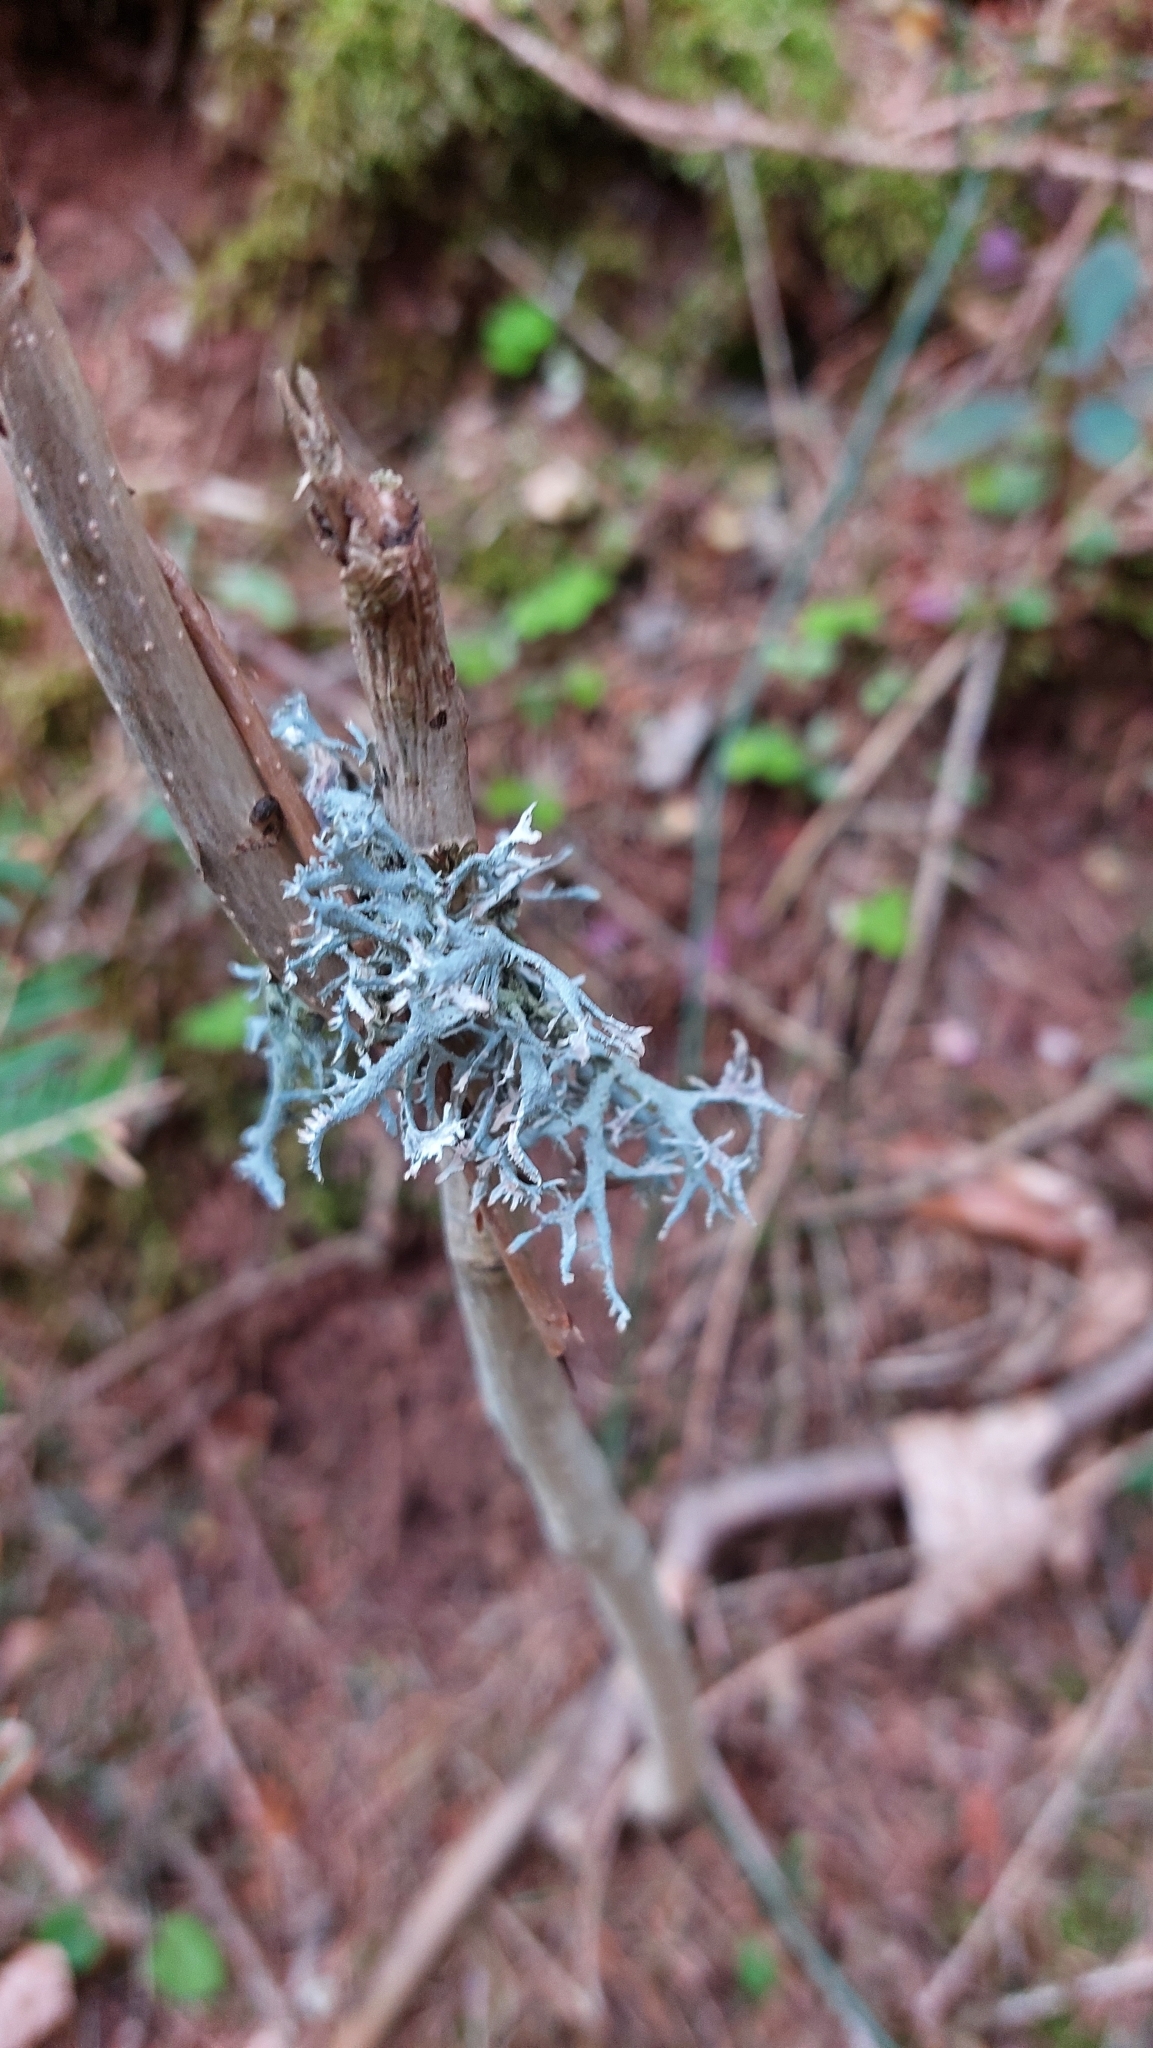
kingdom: Fungi
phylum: Ascomycota
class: Lecanoromycetes
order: Lecanorales
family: Parmeliaceae
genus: Pseudevernia
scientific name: Pseudevernia furfuracea
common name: Tree moss
